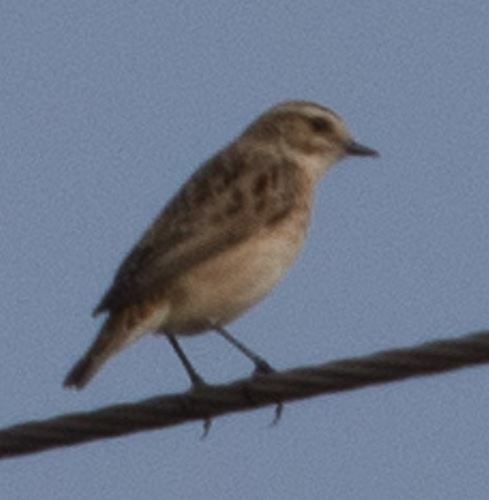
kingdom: Animalia
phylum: Chordata
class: Aves
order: Passeriformes
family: Muscicapidae
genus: Saxicola
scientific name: Saxicola rubetra
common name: Whinchat
